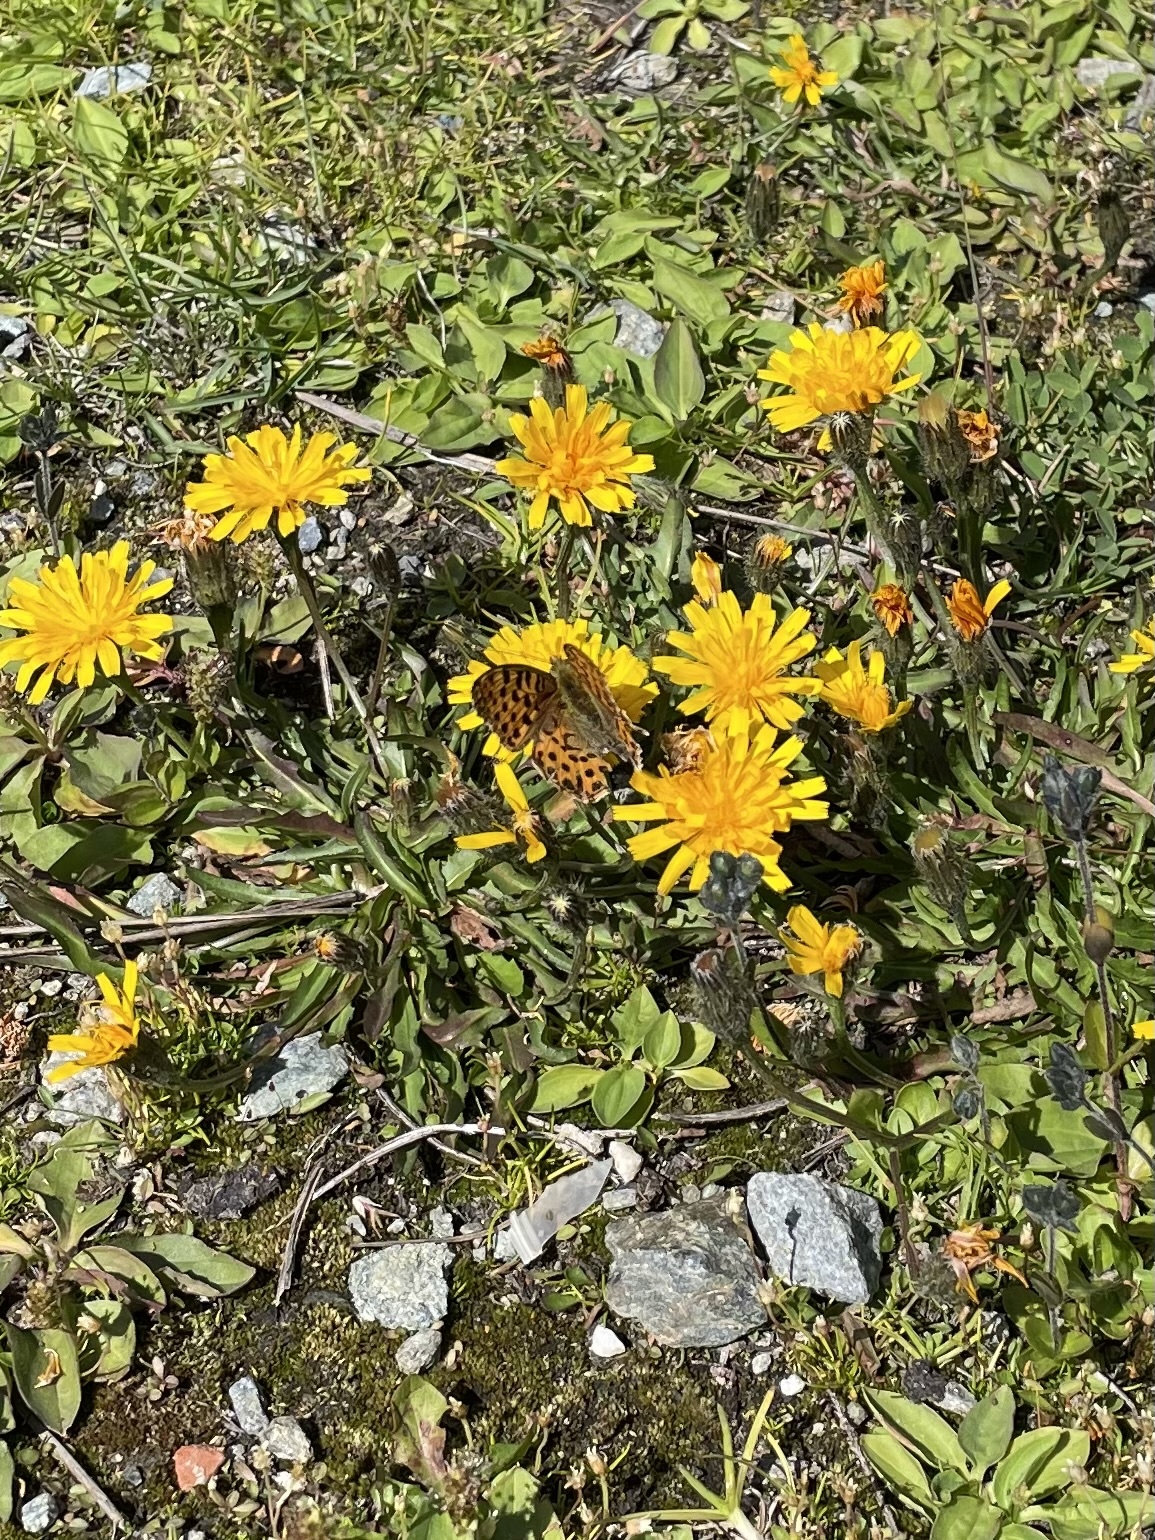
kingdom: Animalia
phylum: Arthropoda
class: Insecta
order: Lepidoptera
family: Nymphalidae
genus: Issoria
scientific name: Issoria lathonia
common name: Queen of spain fritillary
